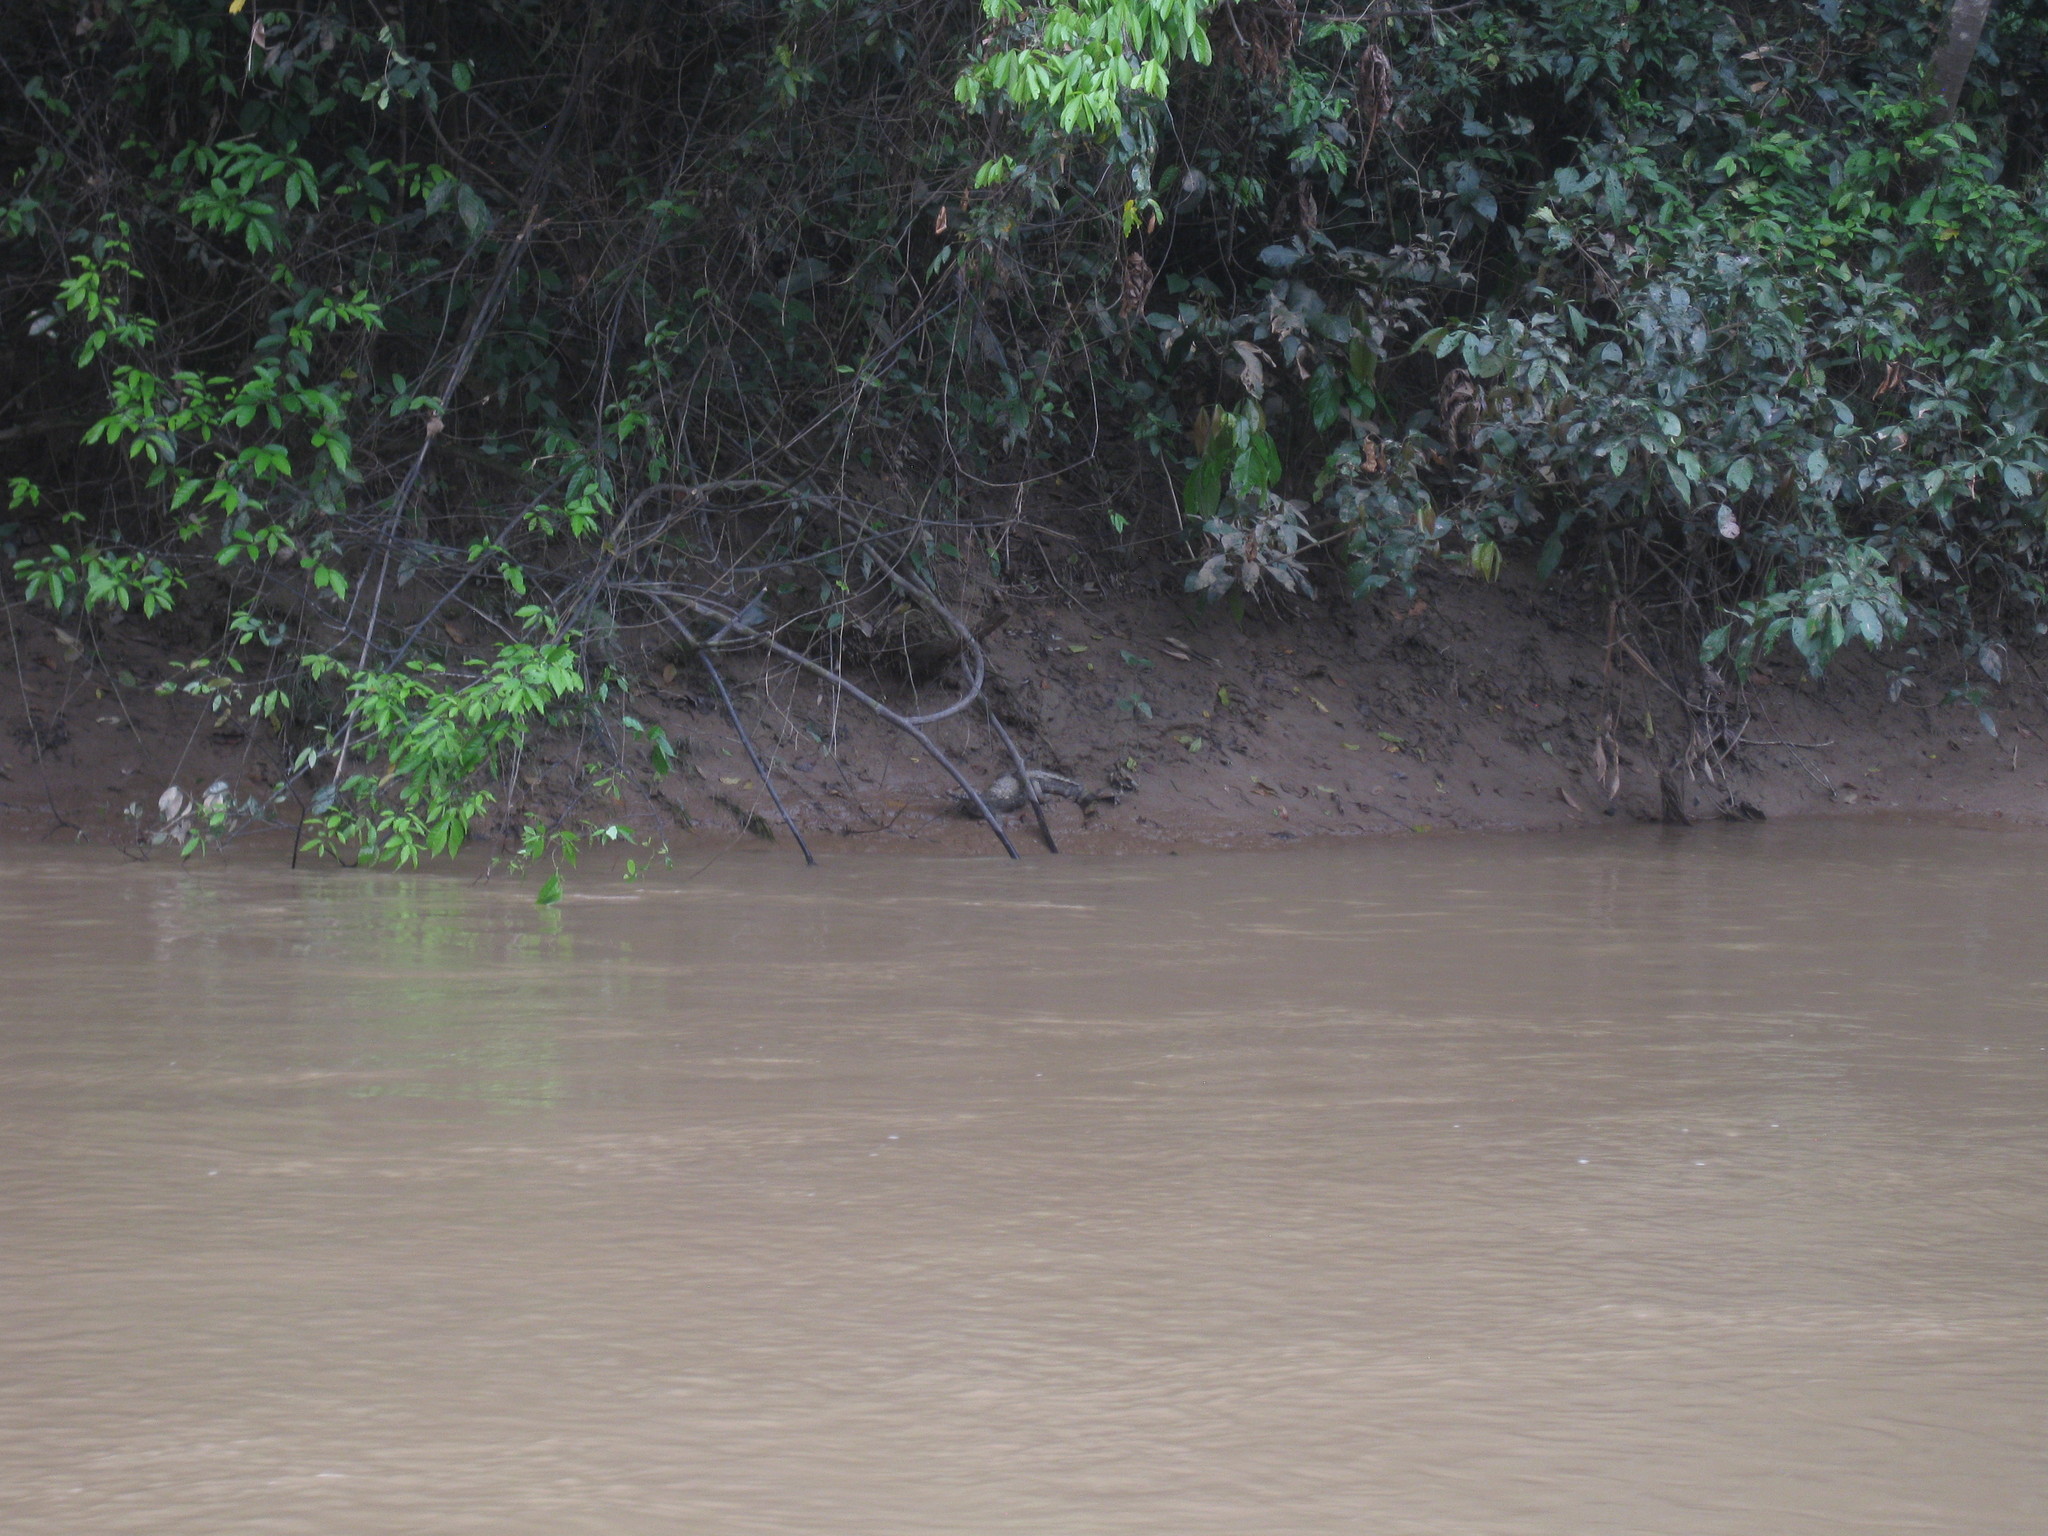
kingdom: Animalia
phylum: Chordata
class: Crocodylia
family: Alligatoridae
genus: Paleosuchus
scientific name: Paleosuchus
